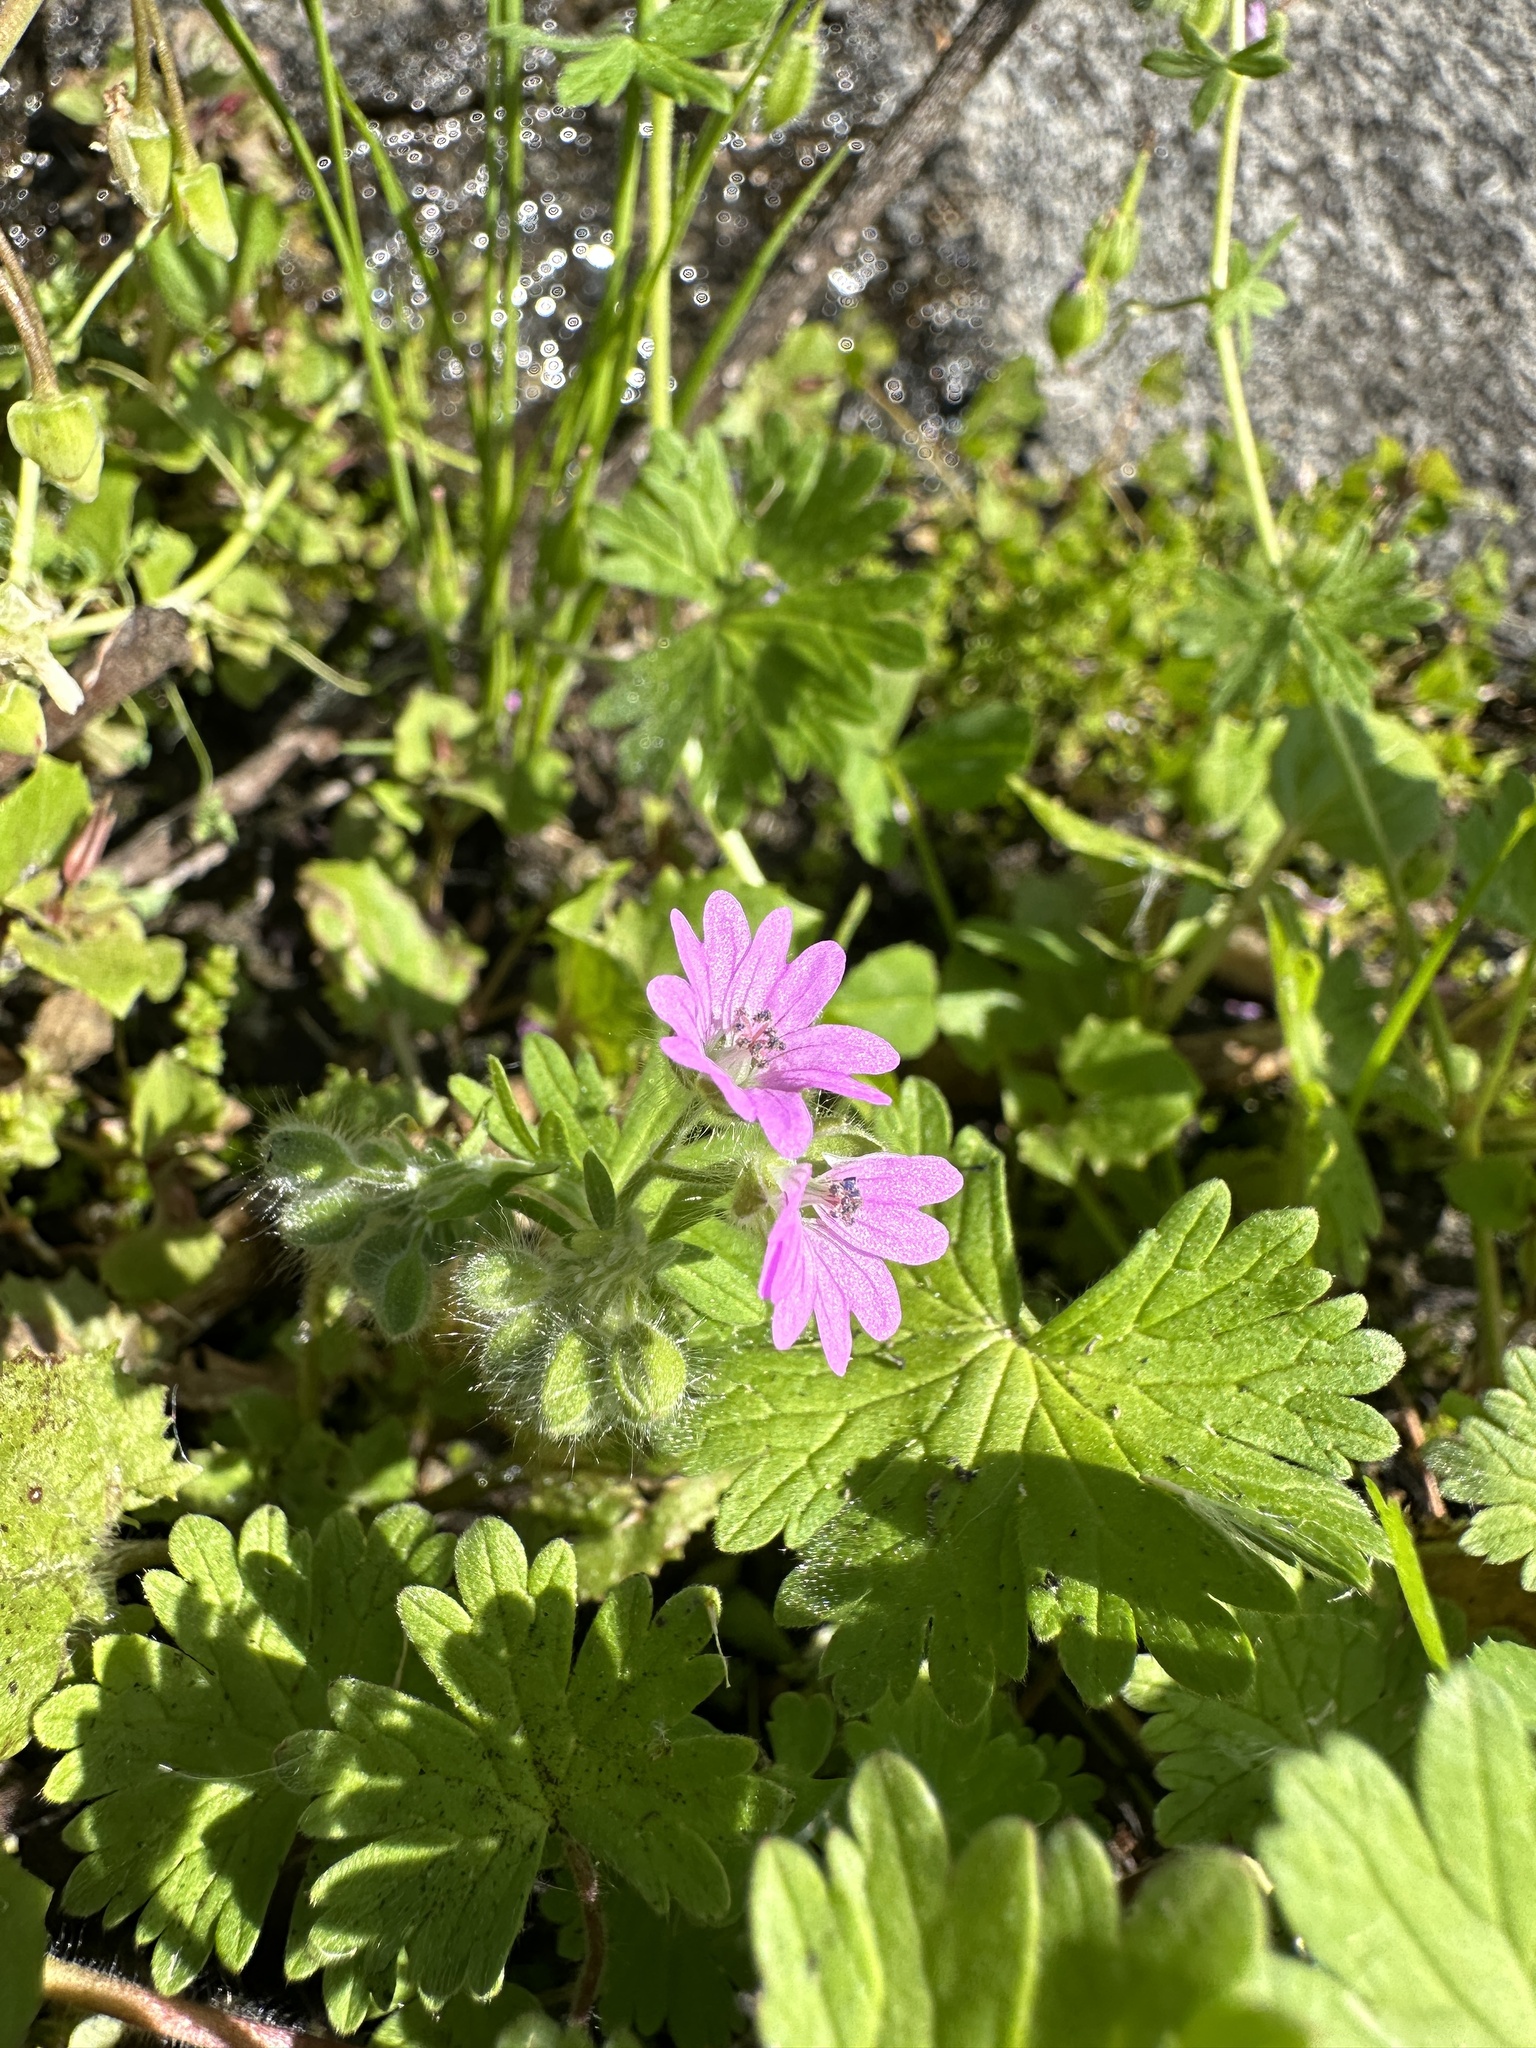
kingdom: Plantae
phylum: Tracheophyta
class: Magnoliopsida
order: Geraniales
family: Geraniaceae
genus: Geranium
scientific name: Geranium molle
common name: Dove's-foot crane's-bill
